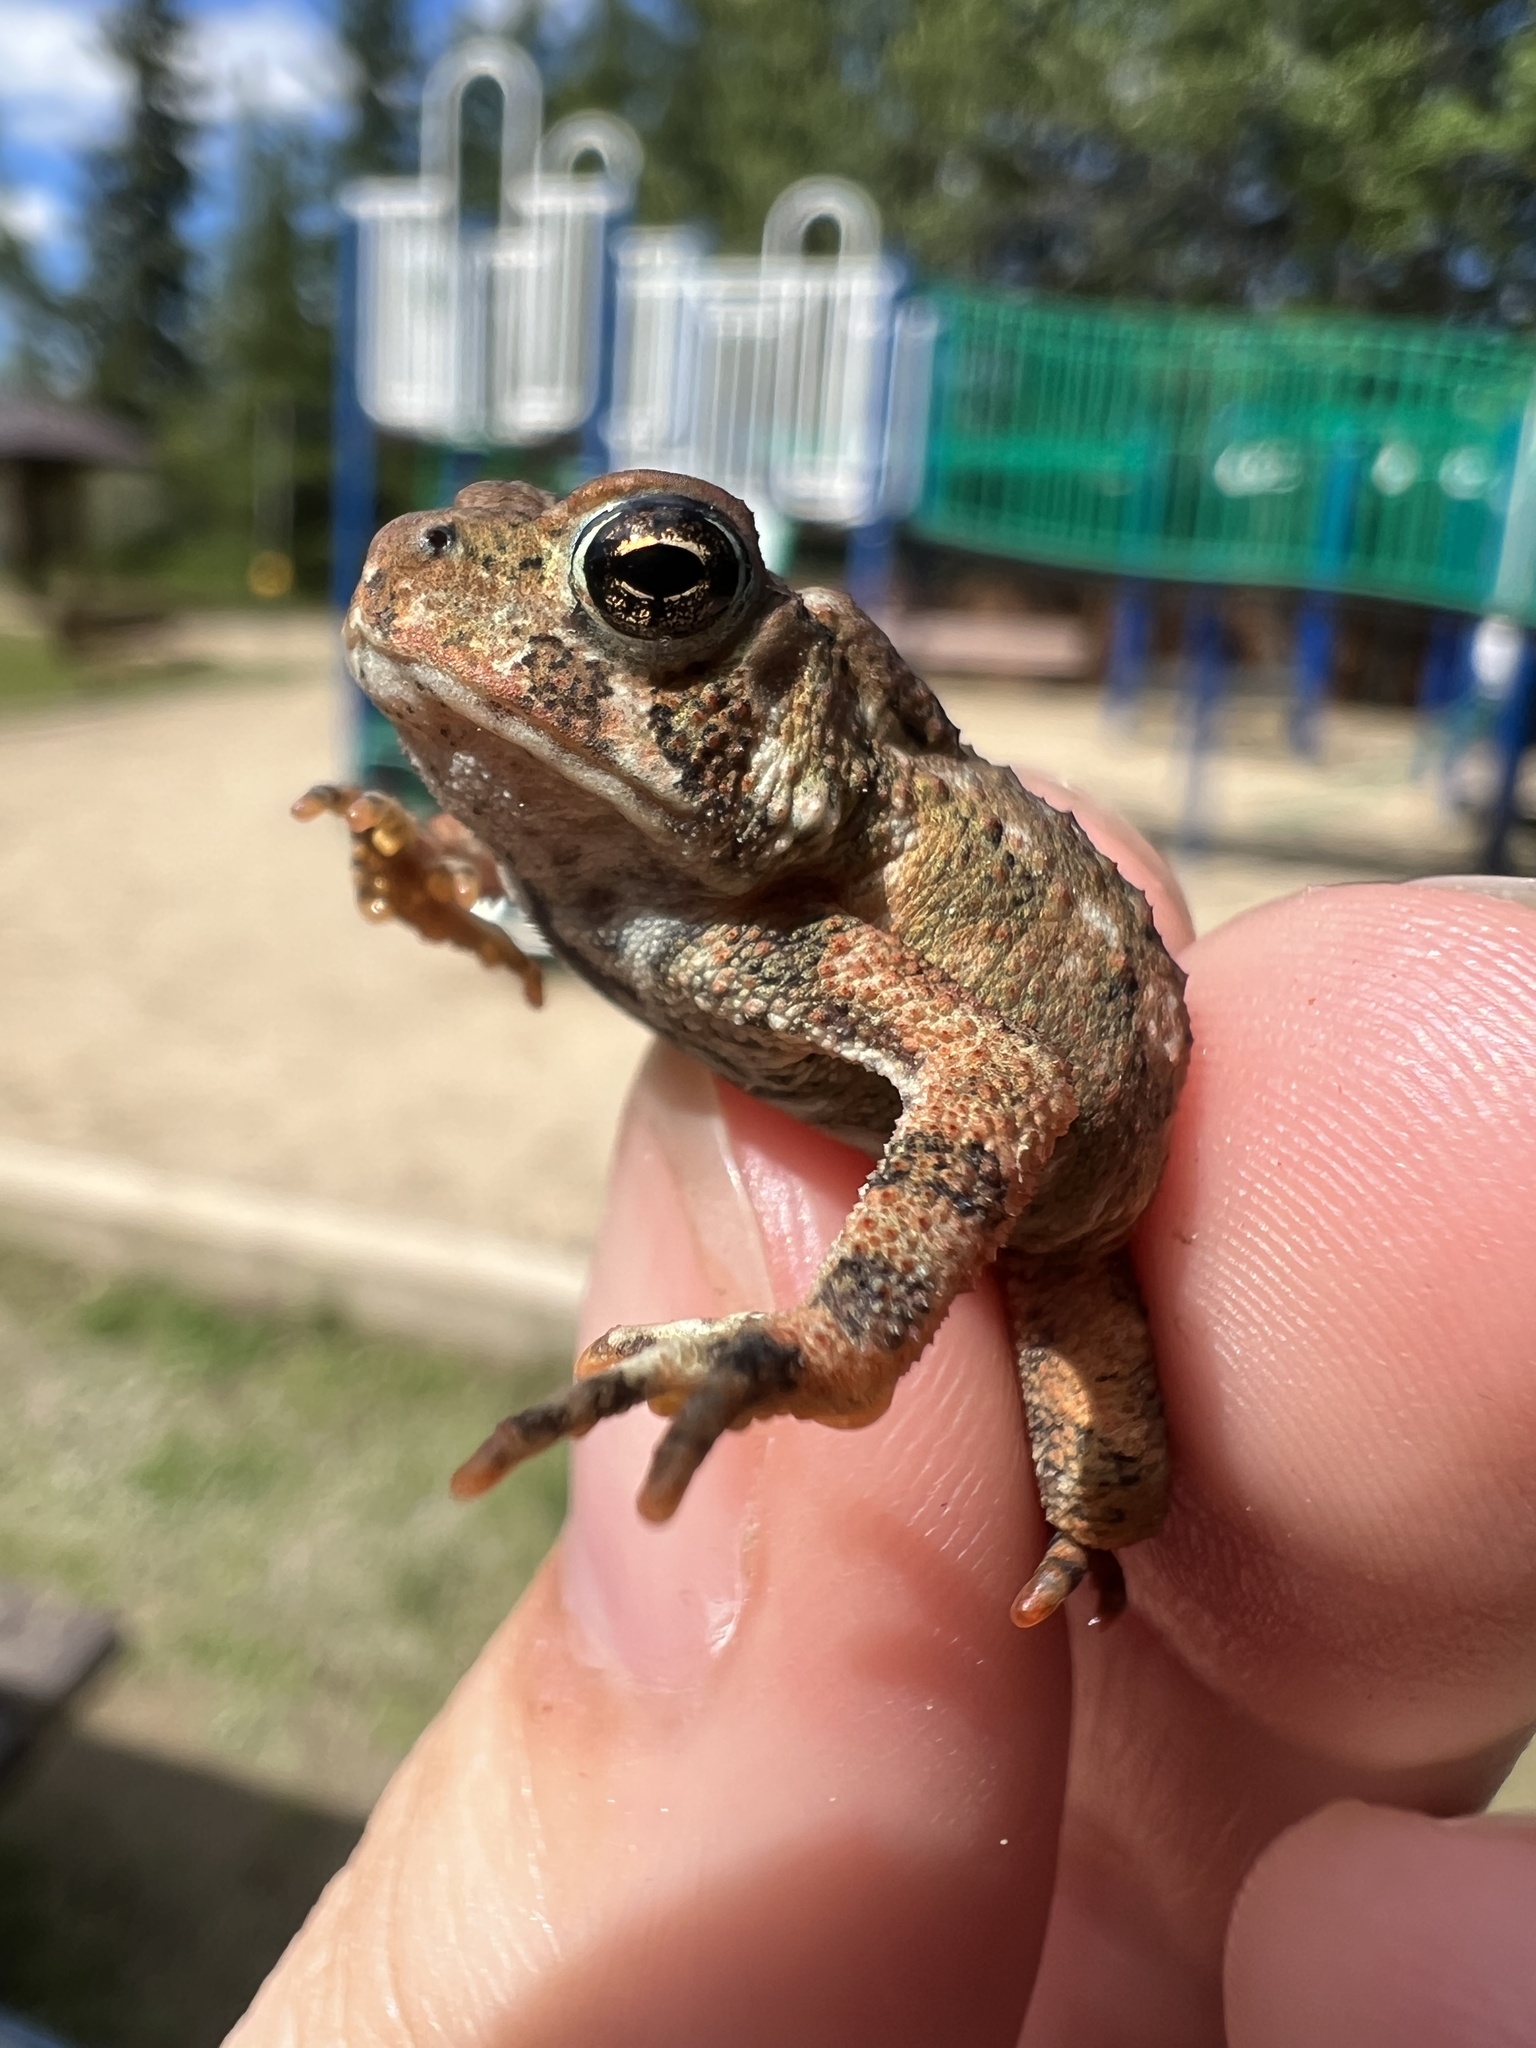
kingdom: Animalia
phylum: Chordata
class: Amphibia
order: Anura
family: Bufonidae
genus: Anaxyrus
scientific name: Anaxyrus americanus
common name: American toad
